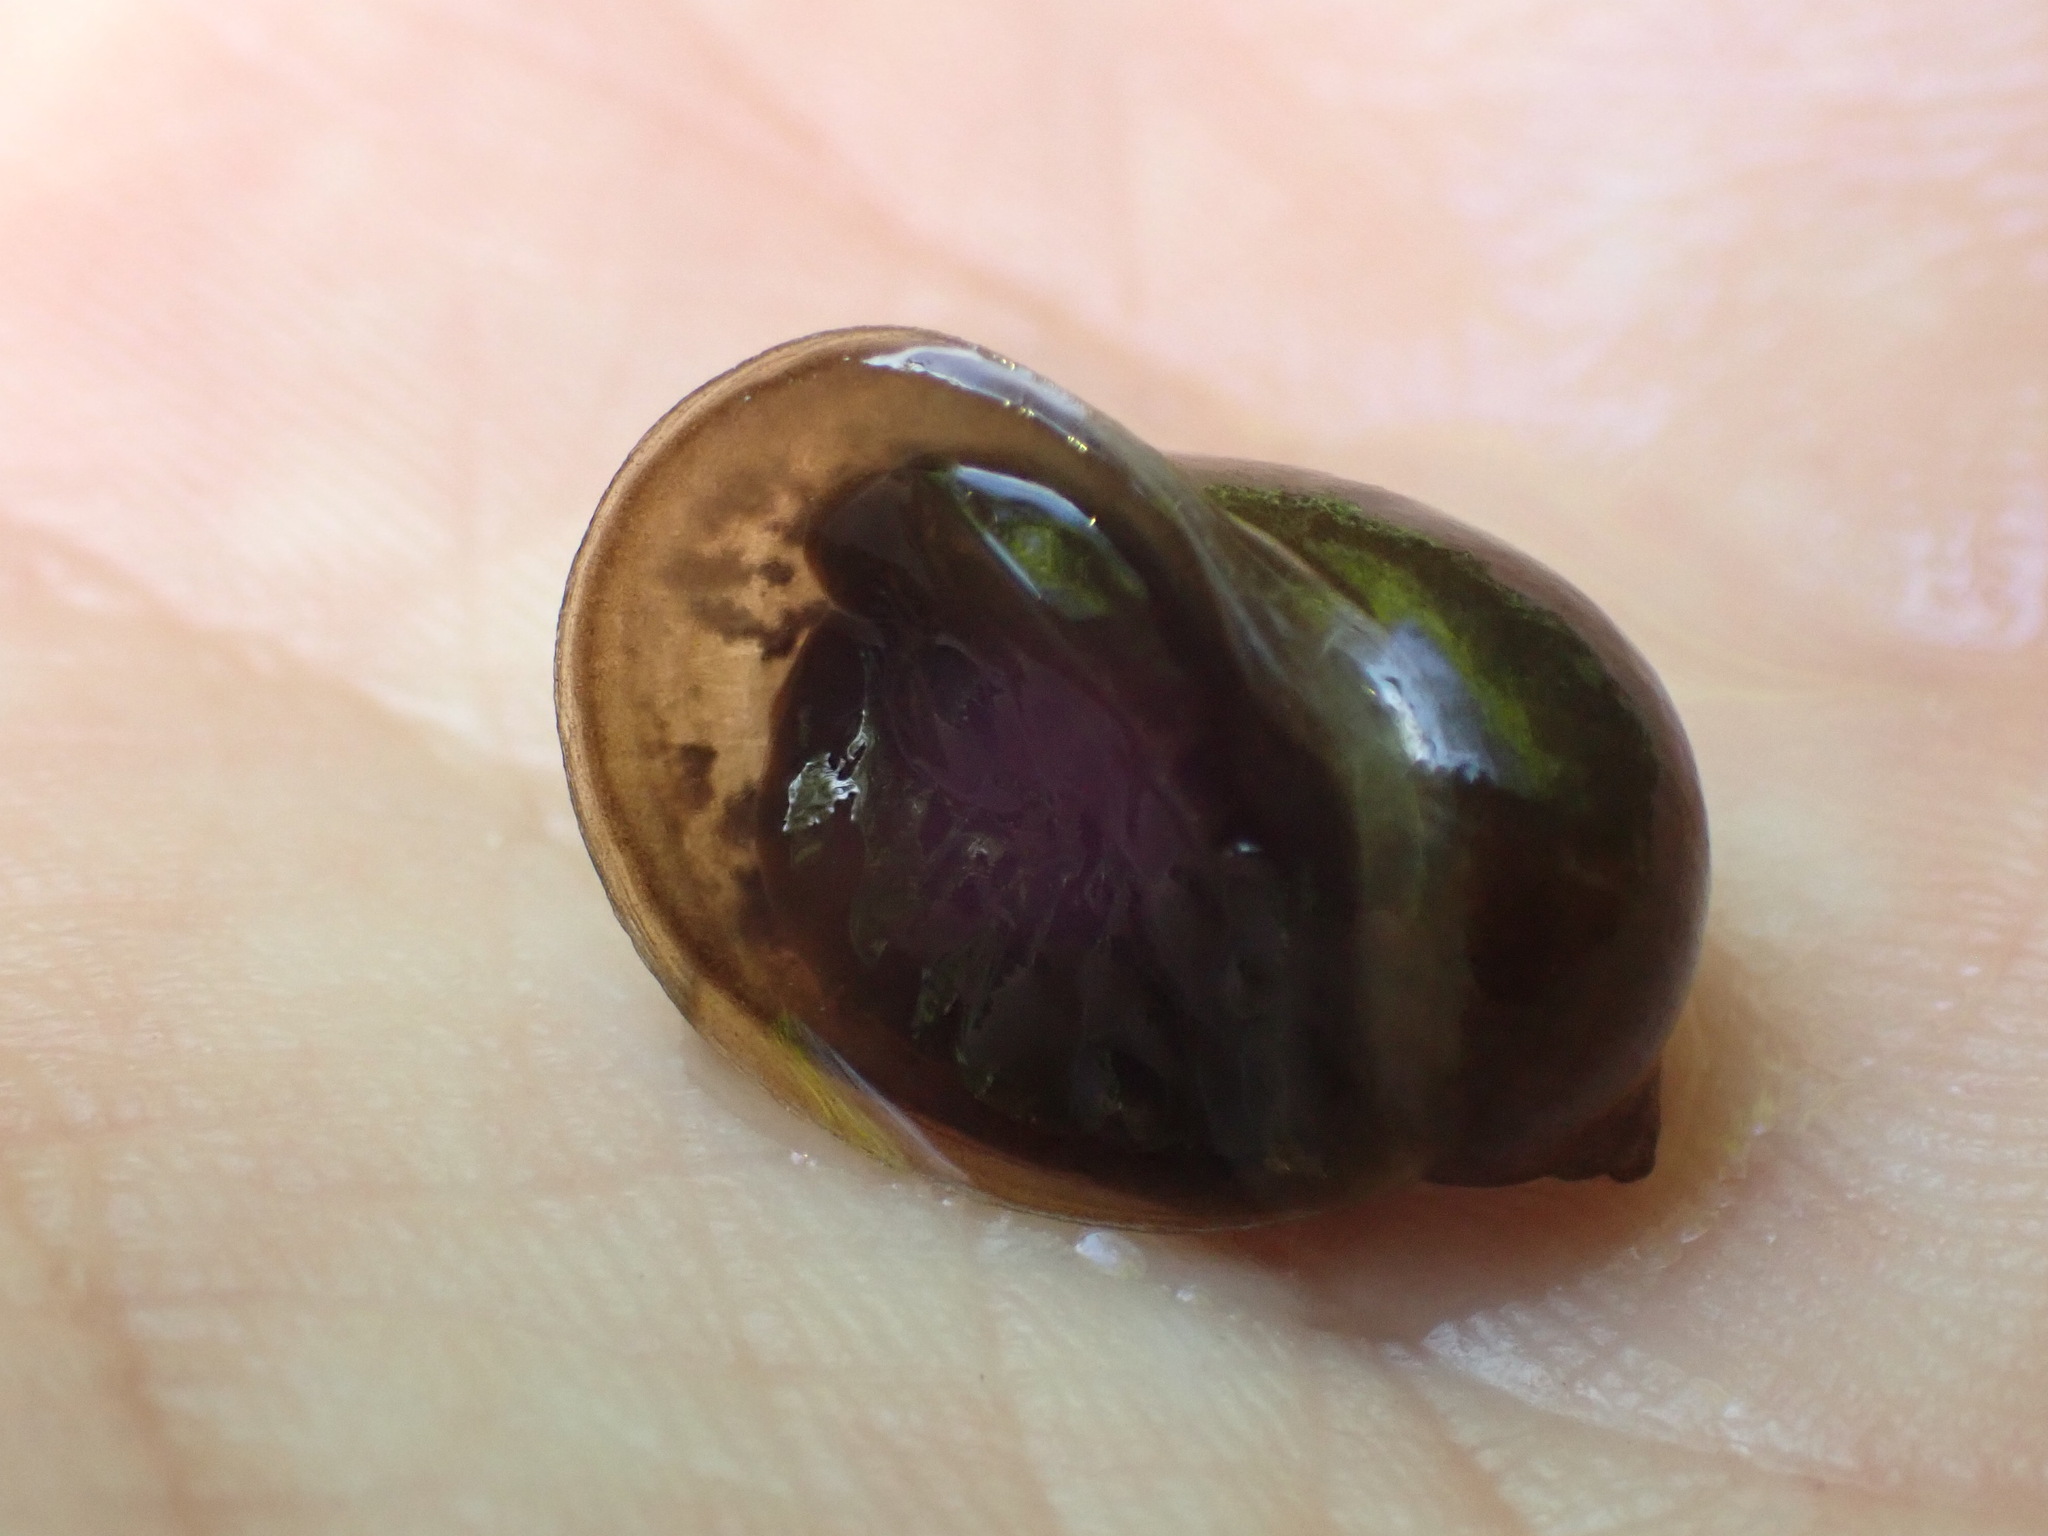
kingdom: Animalia
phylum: Mollusca
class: Gastropoda
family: Lymnaeidae
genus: Ampullaceana
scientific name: Ampullaceana balthica
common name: Wandering pond snail
